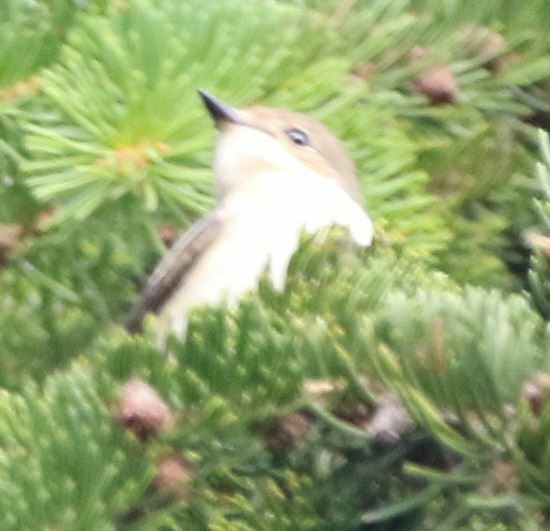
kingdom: Animalia
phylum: Chordata
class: Aves
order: Passeriformes
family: Muscicapidae
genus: Ficedula
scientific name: Ficedula hypoleuca
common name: European pied flycatcher
